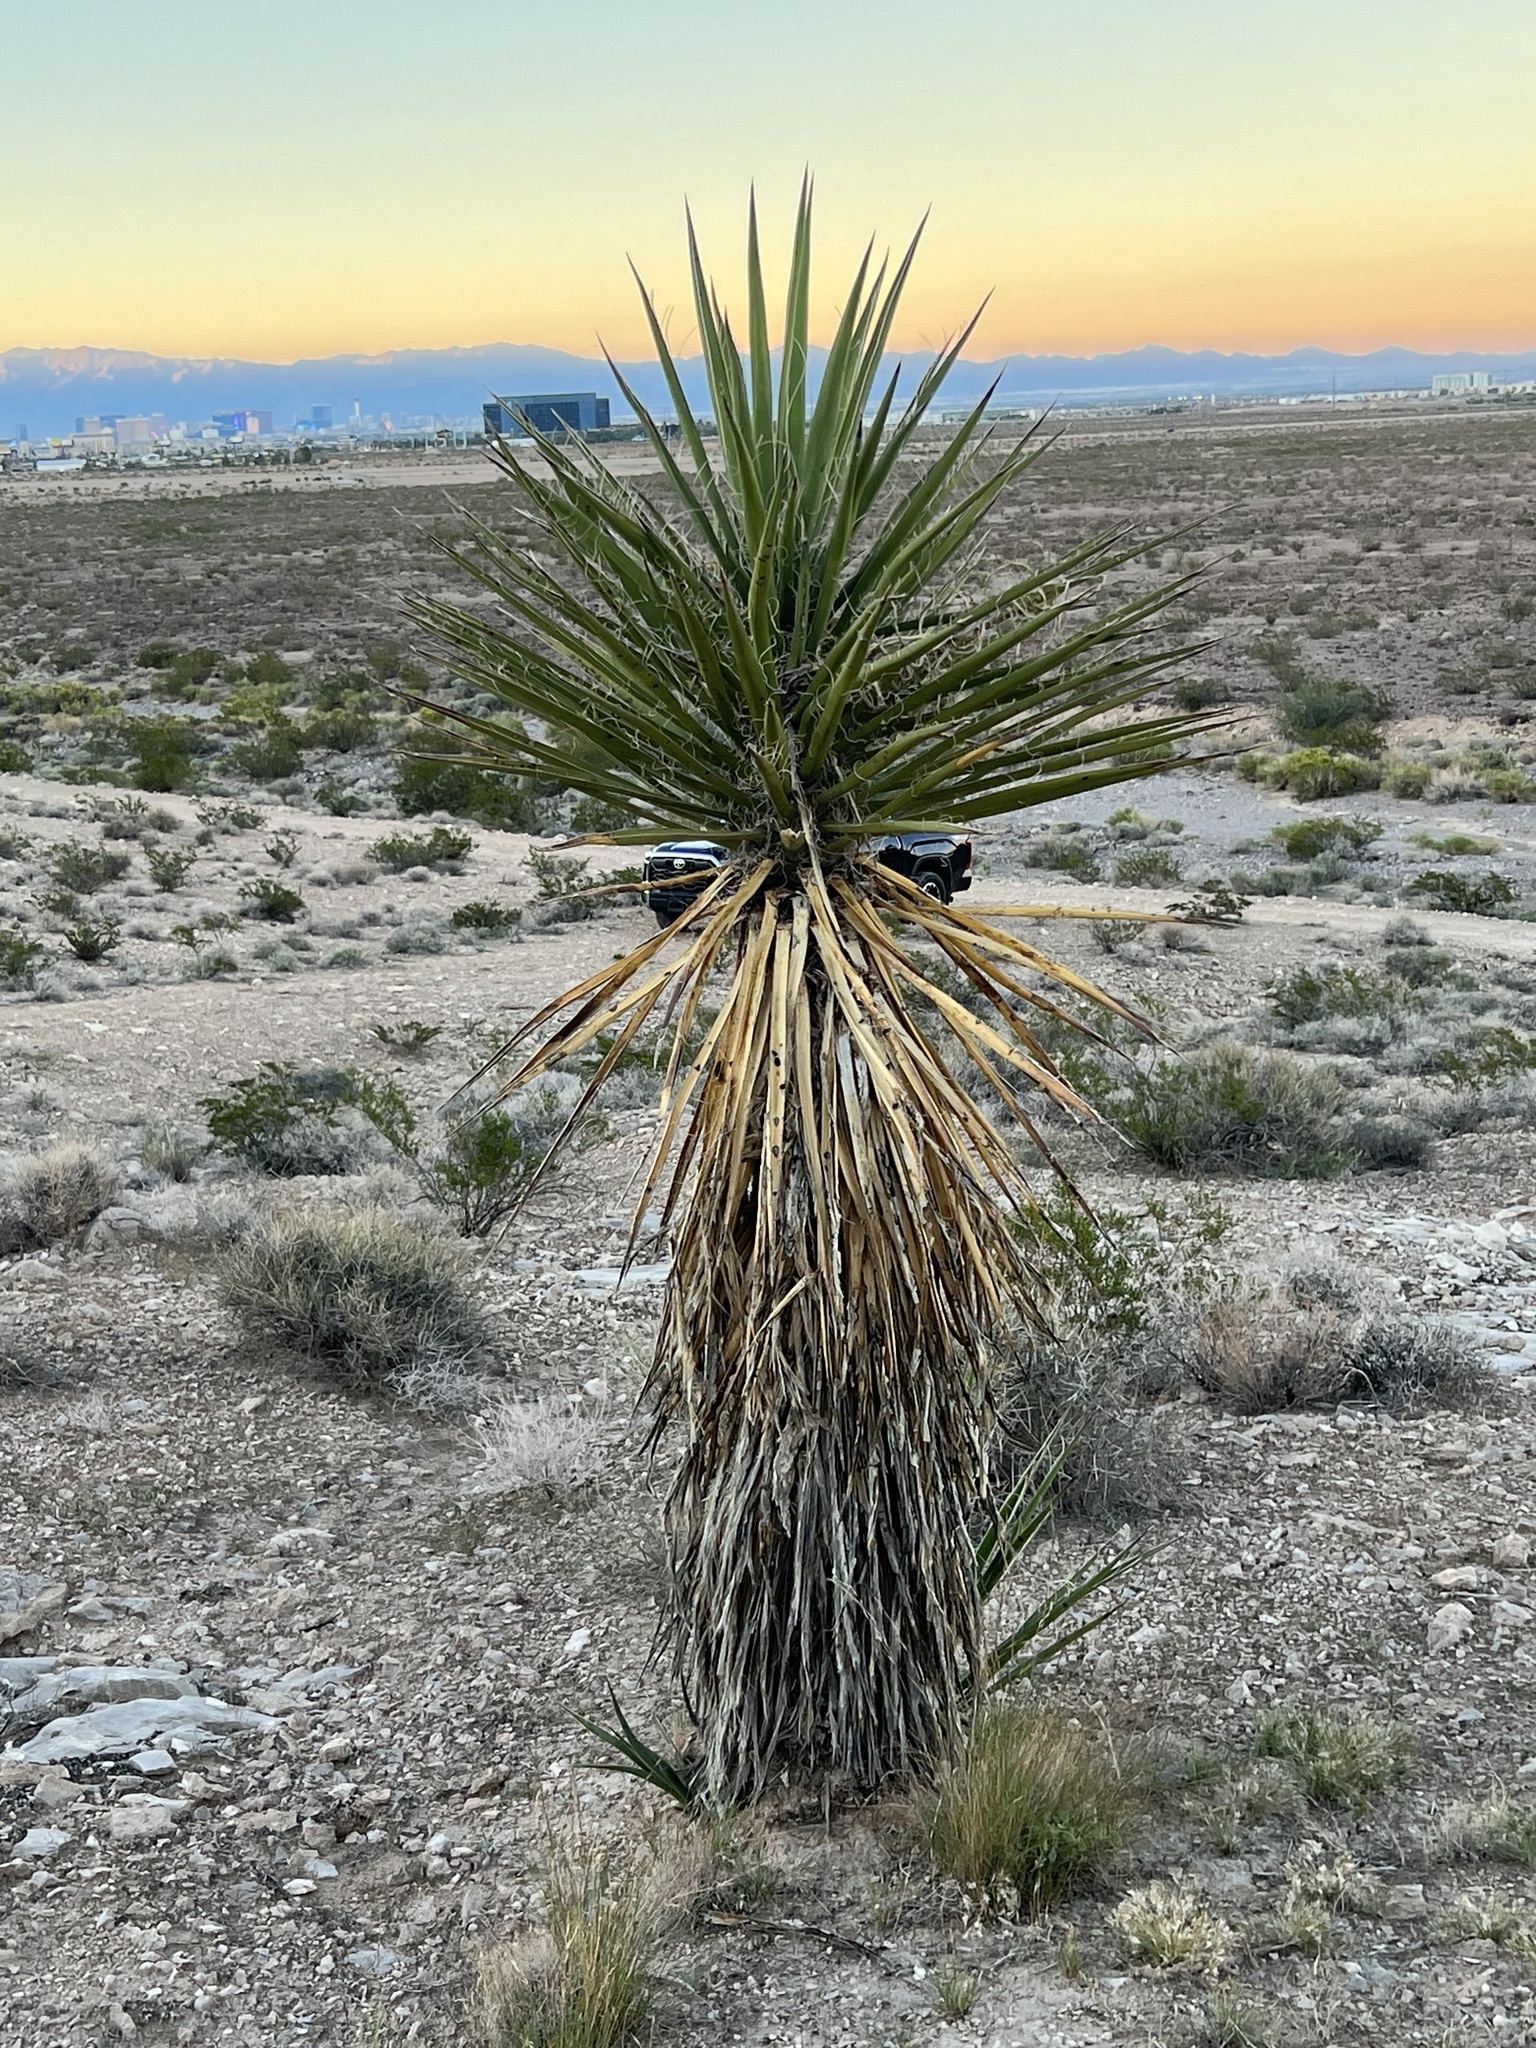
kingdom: Plantae
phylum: Tracheophyta
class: Liliopsida
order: Asparagales
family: Asparagaceae
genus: Yucca
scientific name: Yucca schidigera
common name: Mojave yucca
